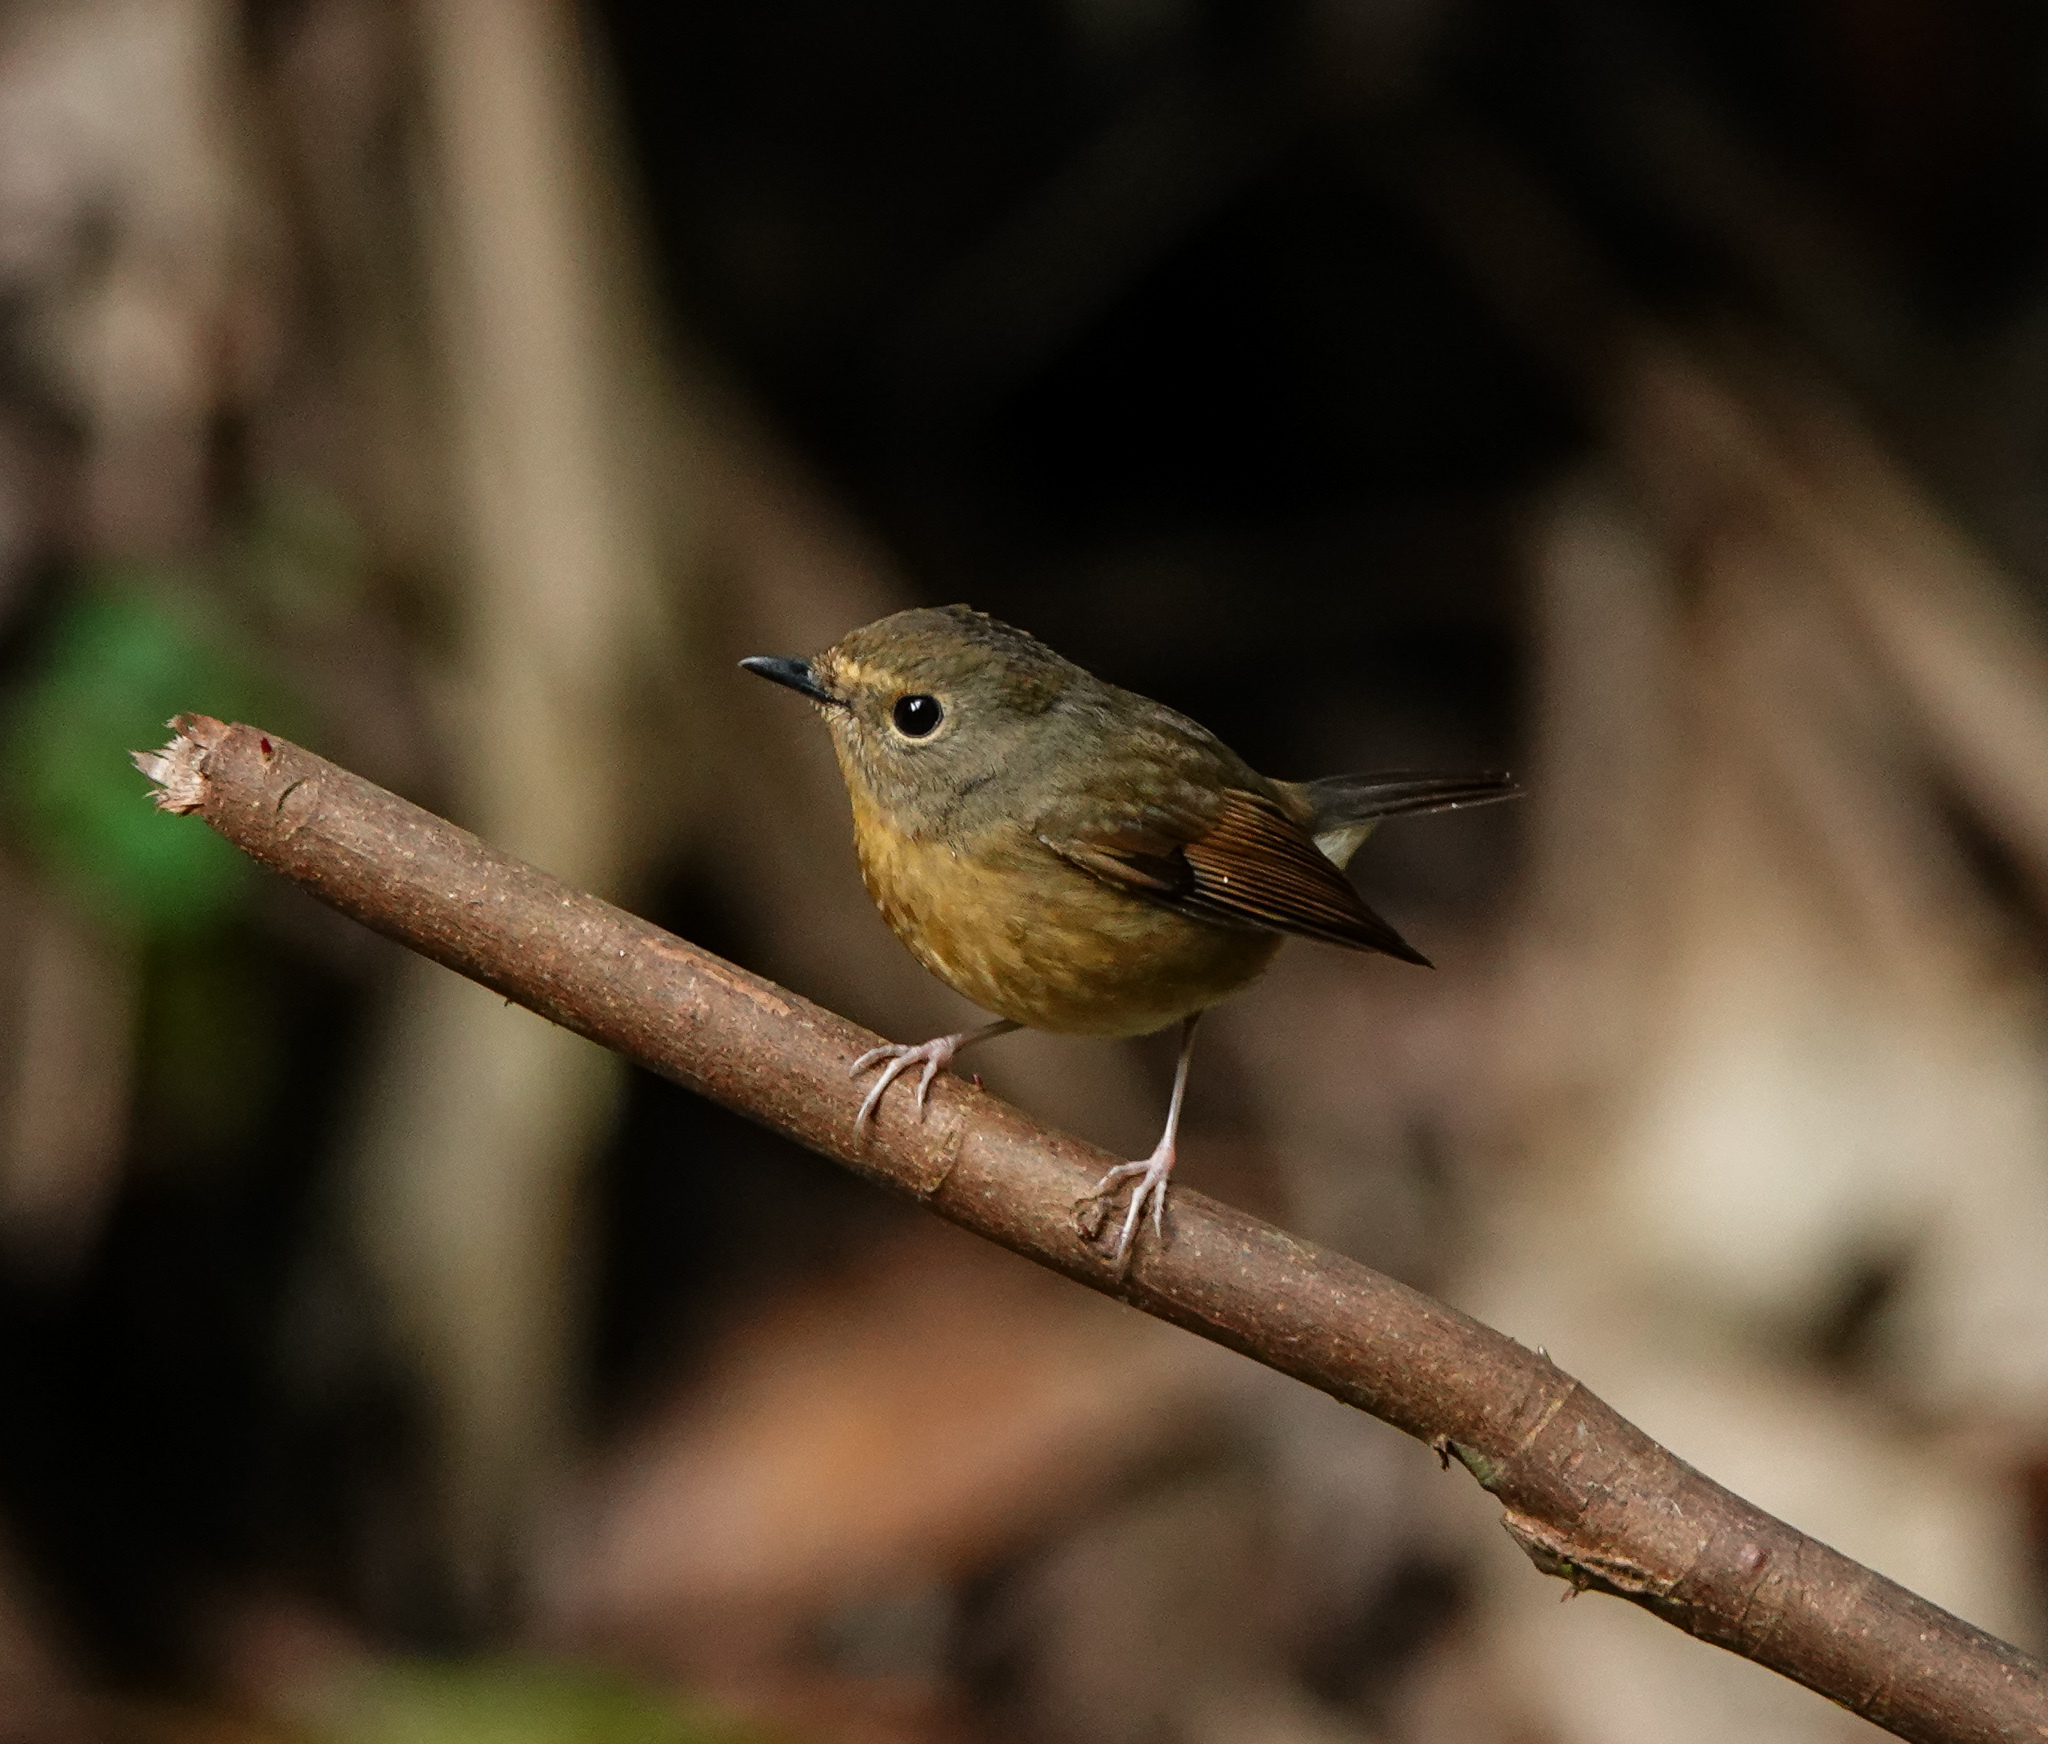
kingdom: Animalia
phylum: Chordata
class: Aves
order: Passeriformes
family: Muscicapidae
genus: Ficedula
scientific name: Ficedula hyperythra
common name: Snowy-browed flycatcher
